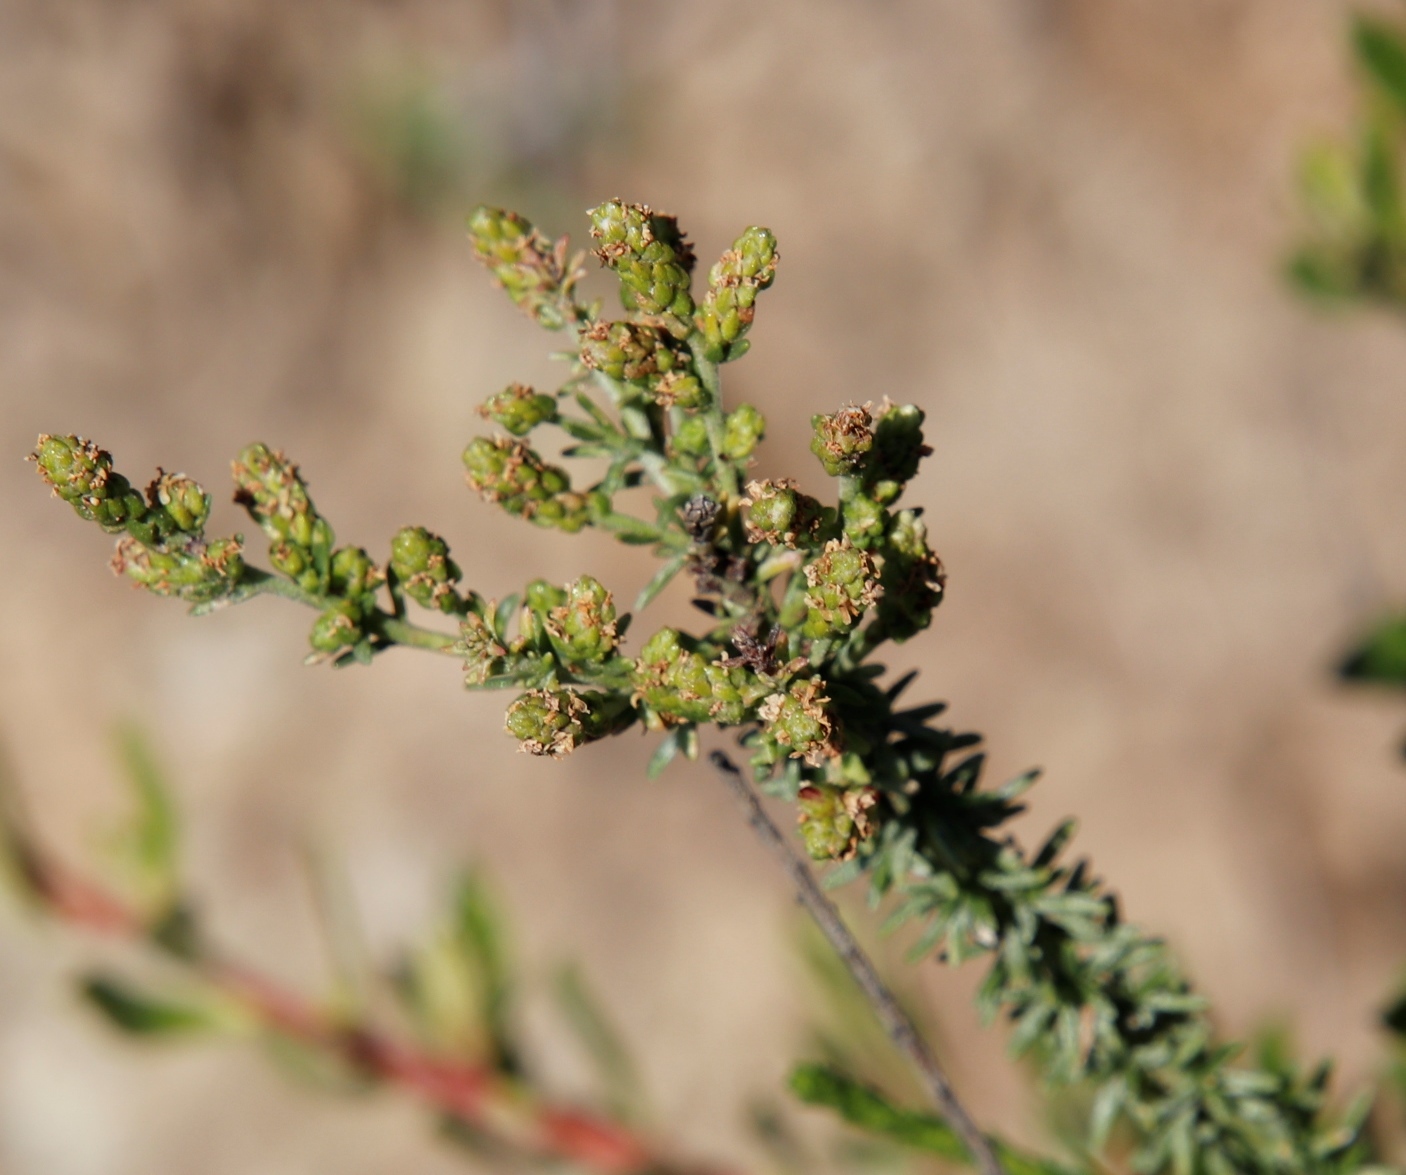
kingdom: Plantae
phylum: Tracheophyta
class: Magnoliopsida
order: Lamiales
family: Scrophulariaceae
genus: Selago
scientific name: Selago galpinii
